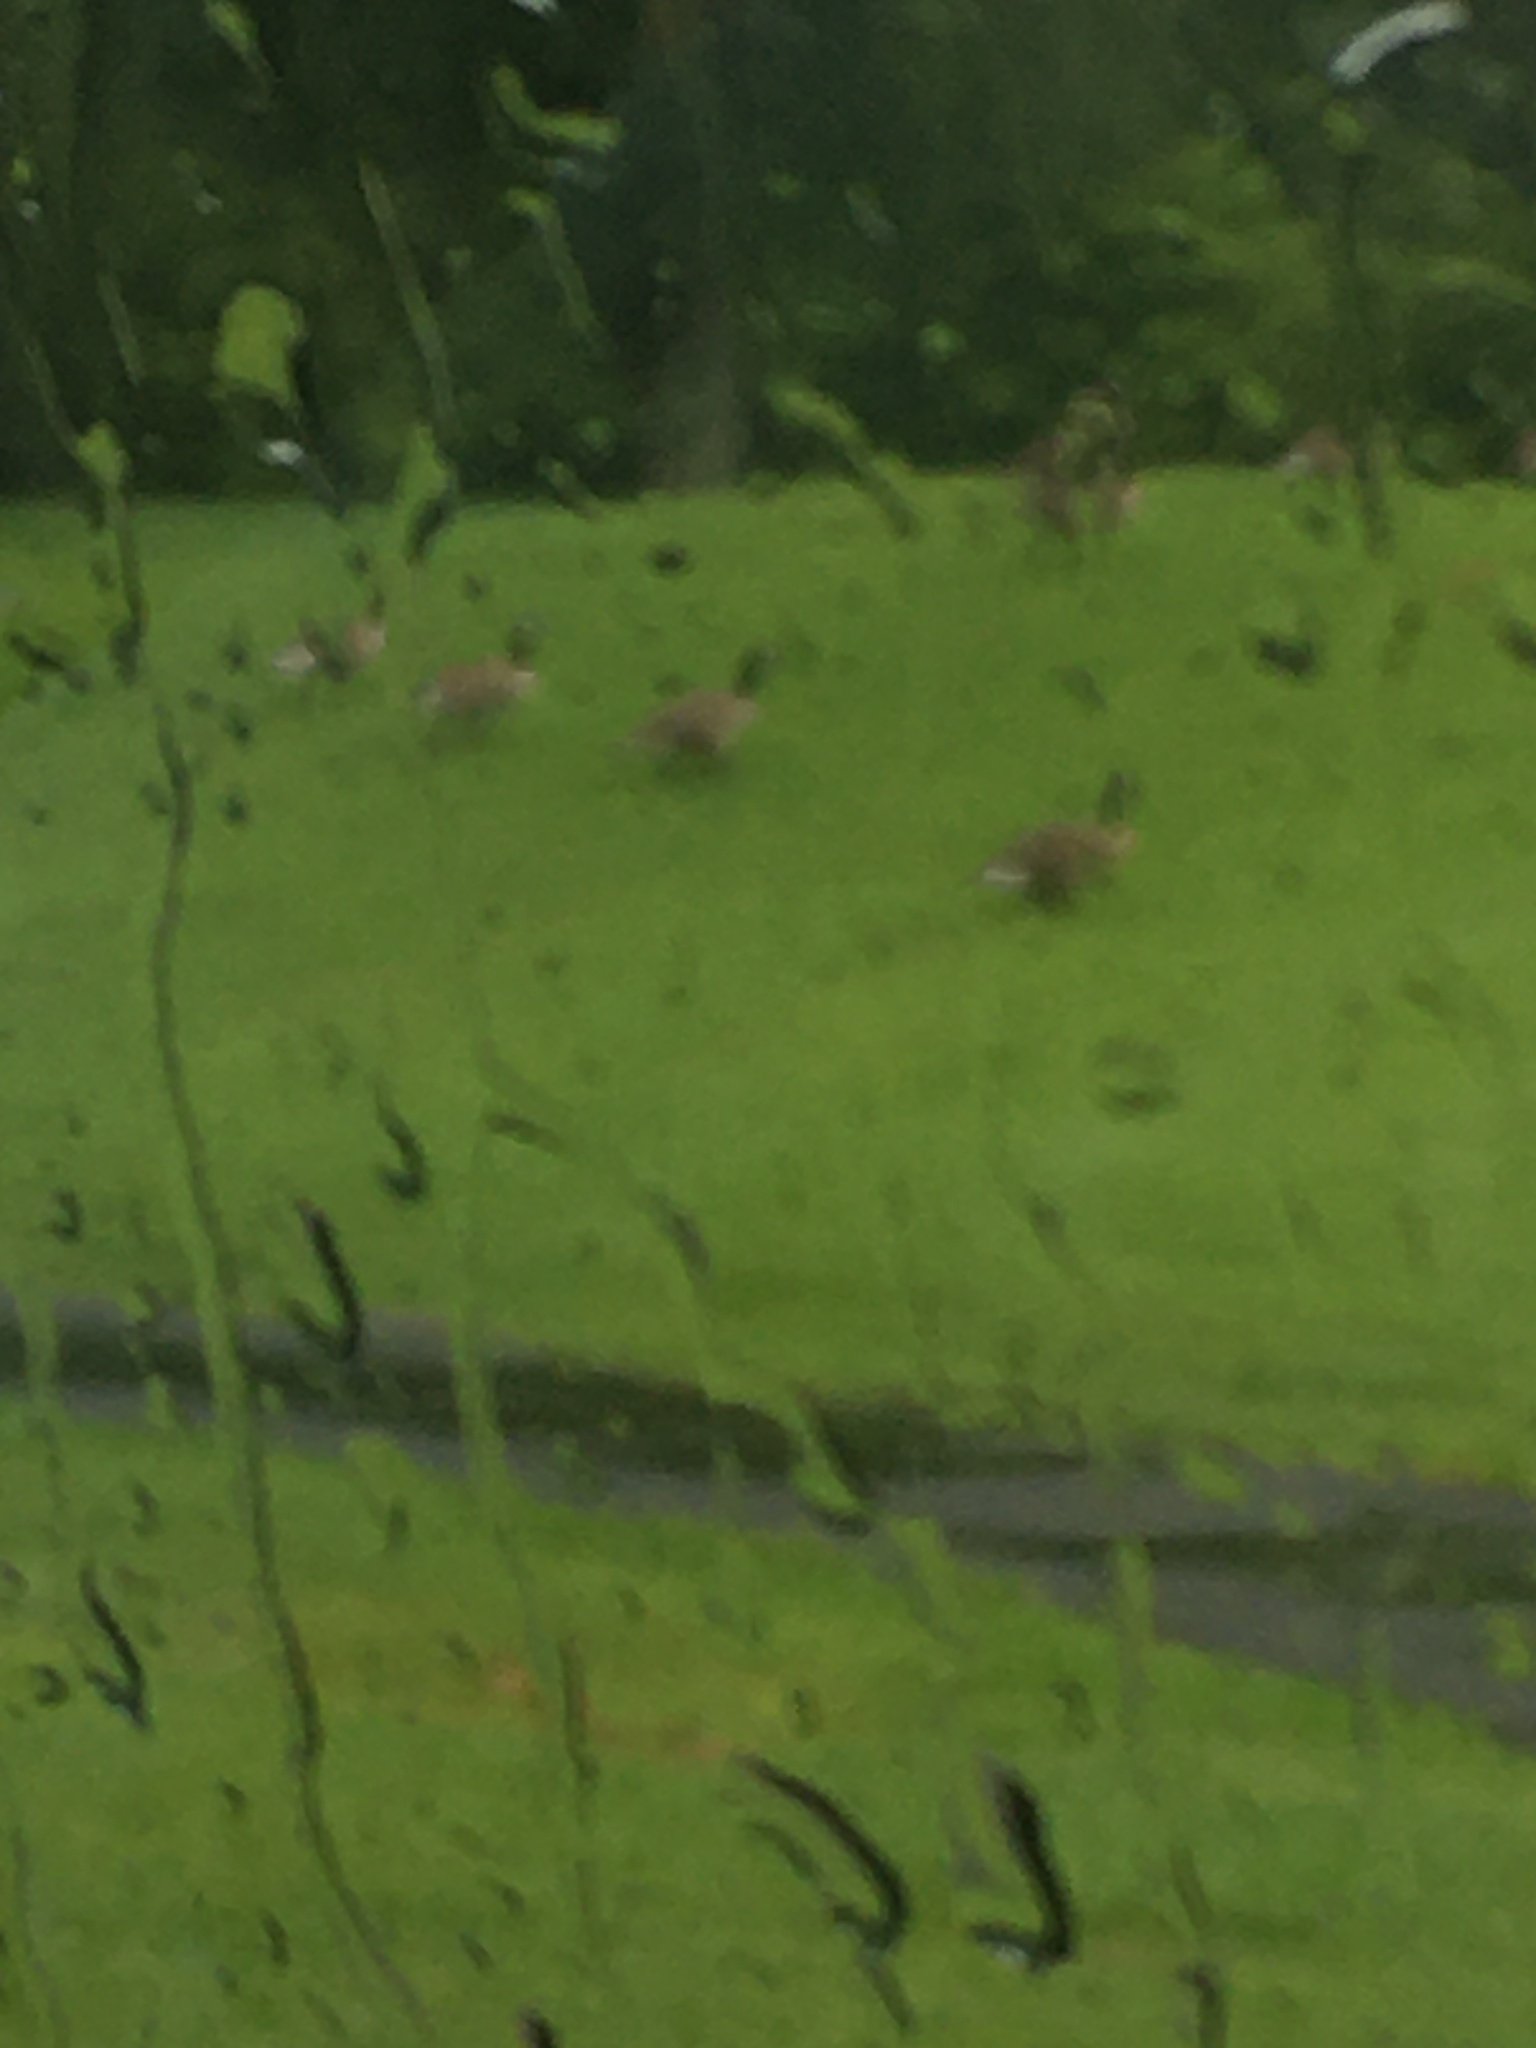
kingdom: Animalia
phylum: Chordata
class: Aves
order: Anseriformes
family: Anatidae
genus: Branta
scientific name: Branta canadensis
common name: Canada goose
